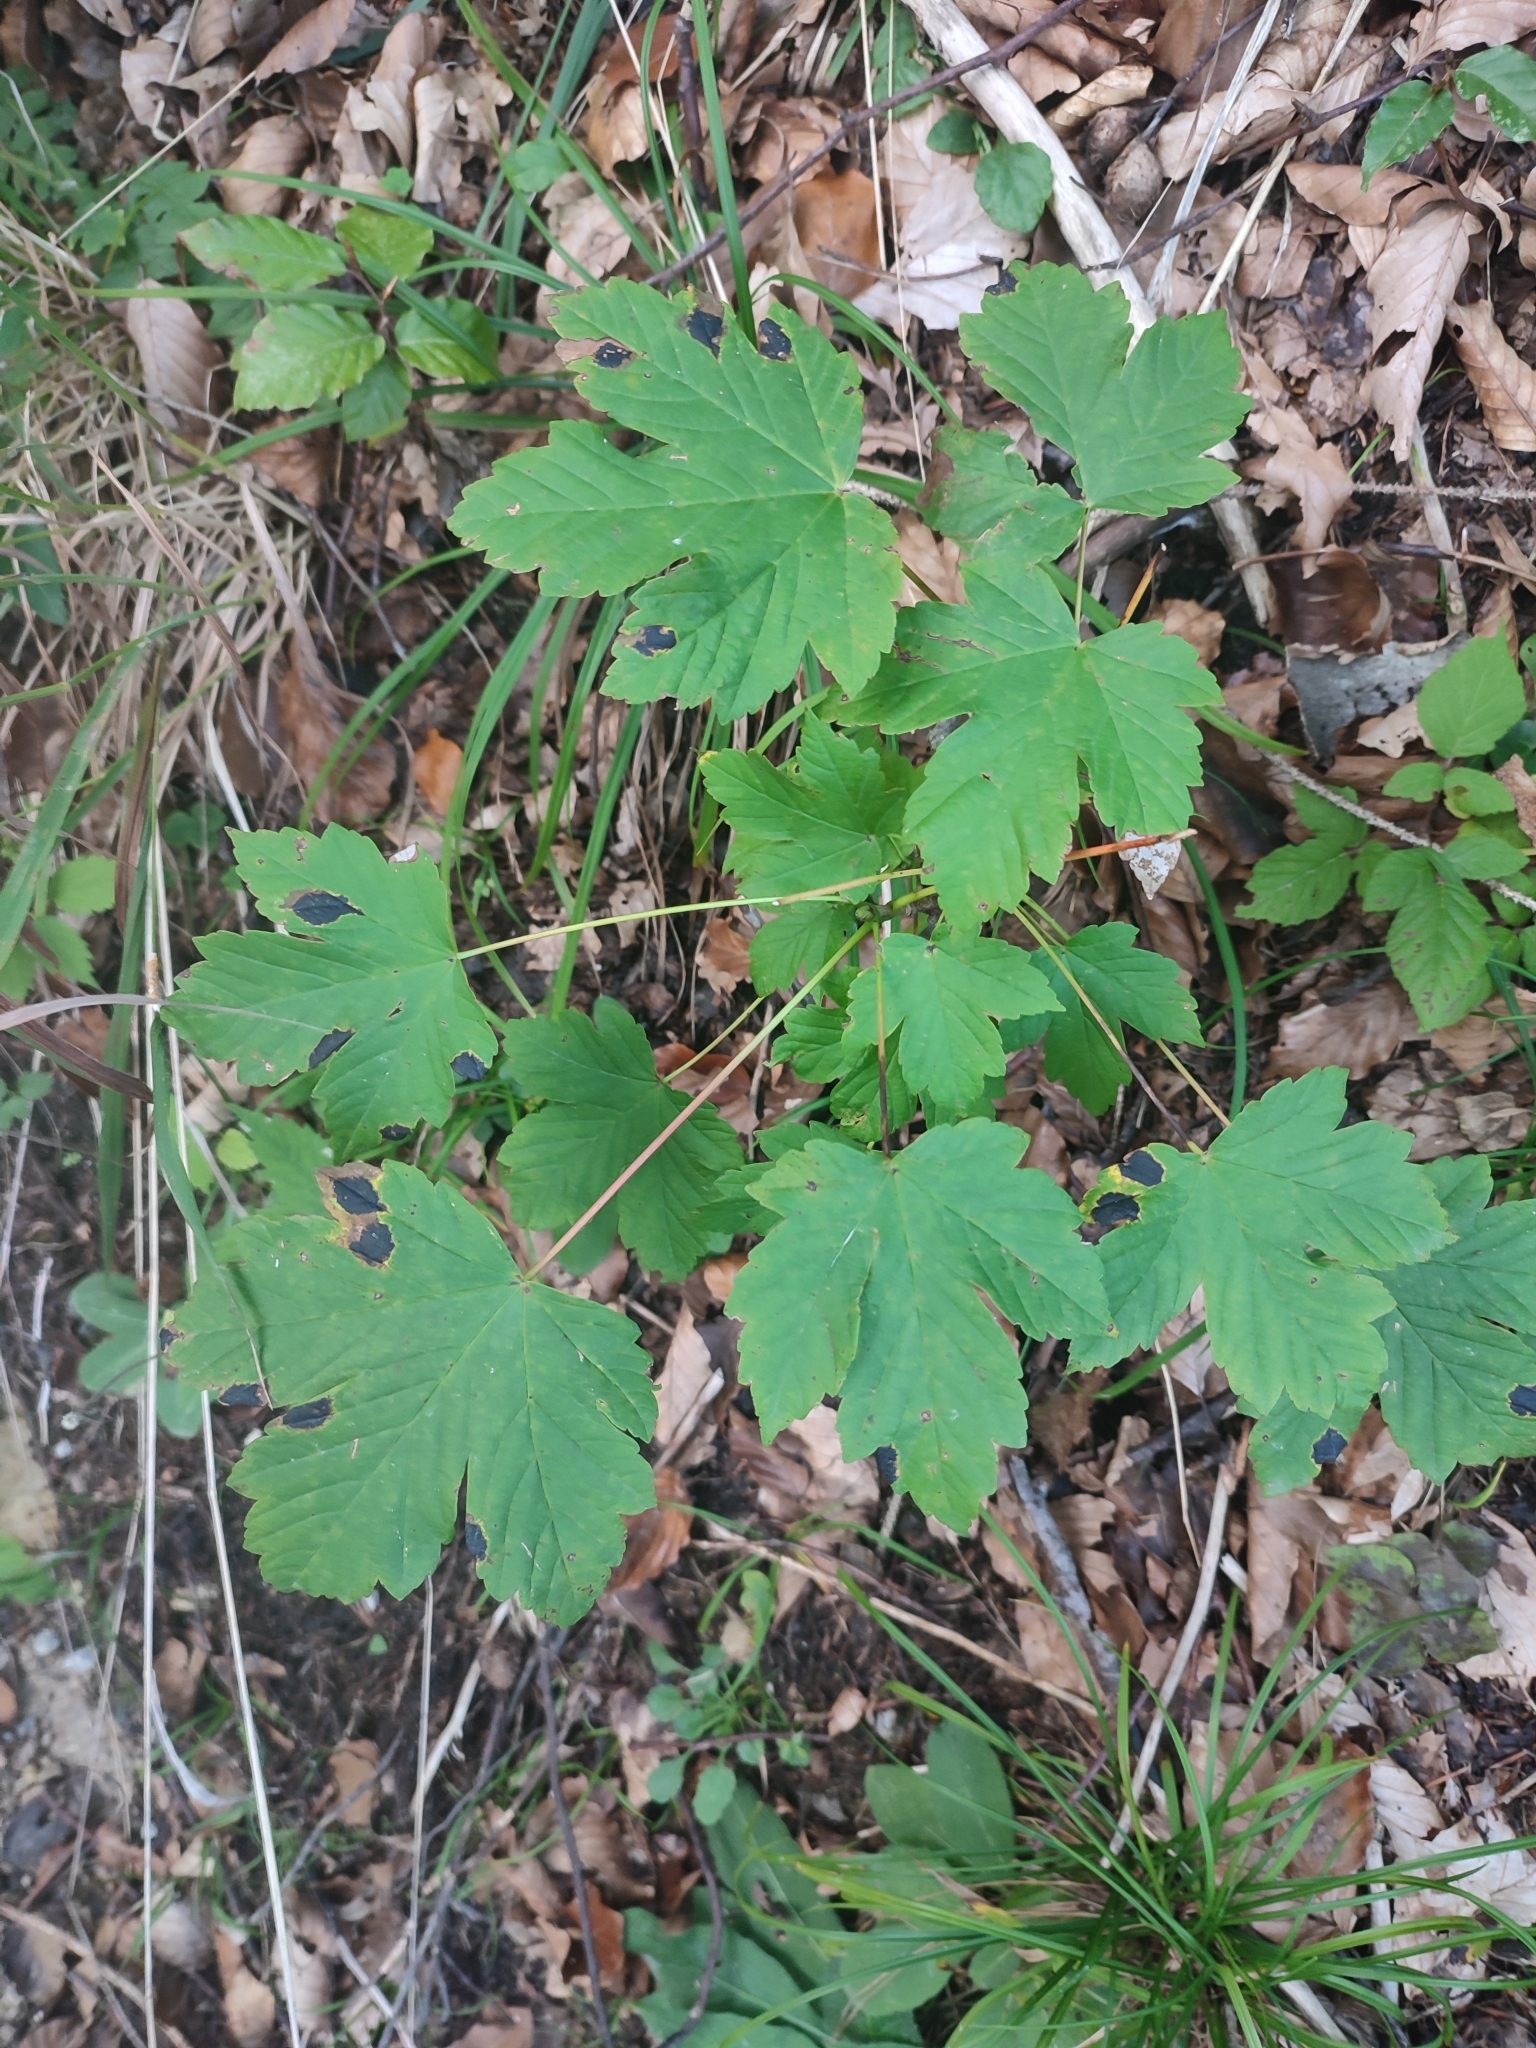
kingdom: Plantae
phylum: Tracheophyta
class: Magnoliopsida
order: Sapindales
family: Sapindaceae
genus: Acer
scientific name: Acer pseudoplatanus
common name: Sycamore
